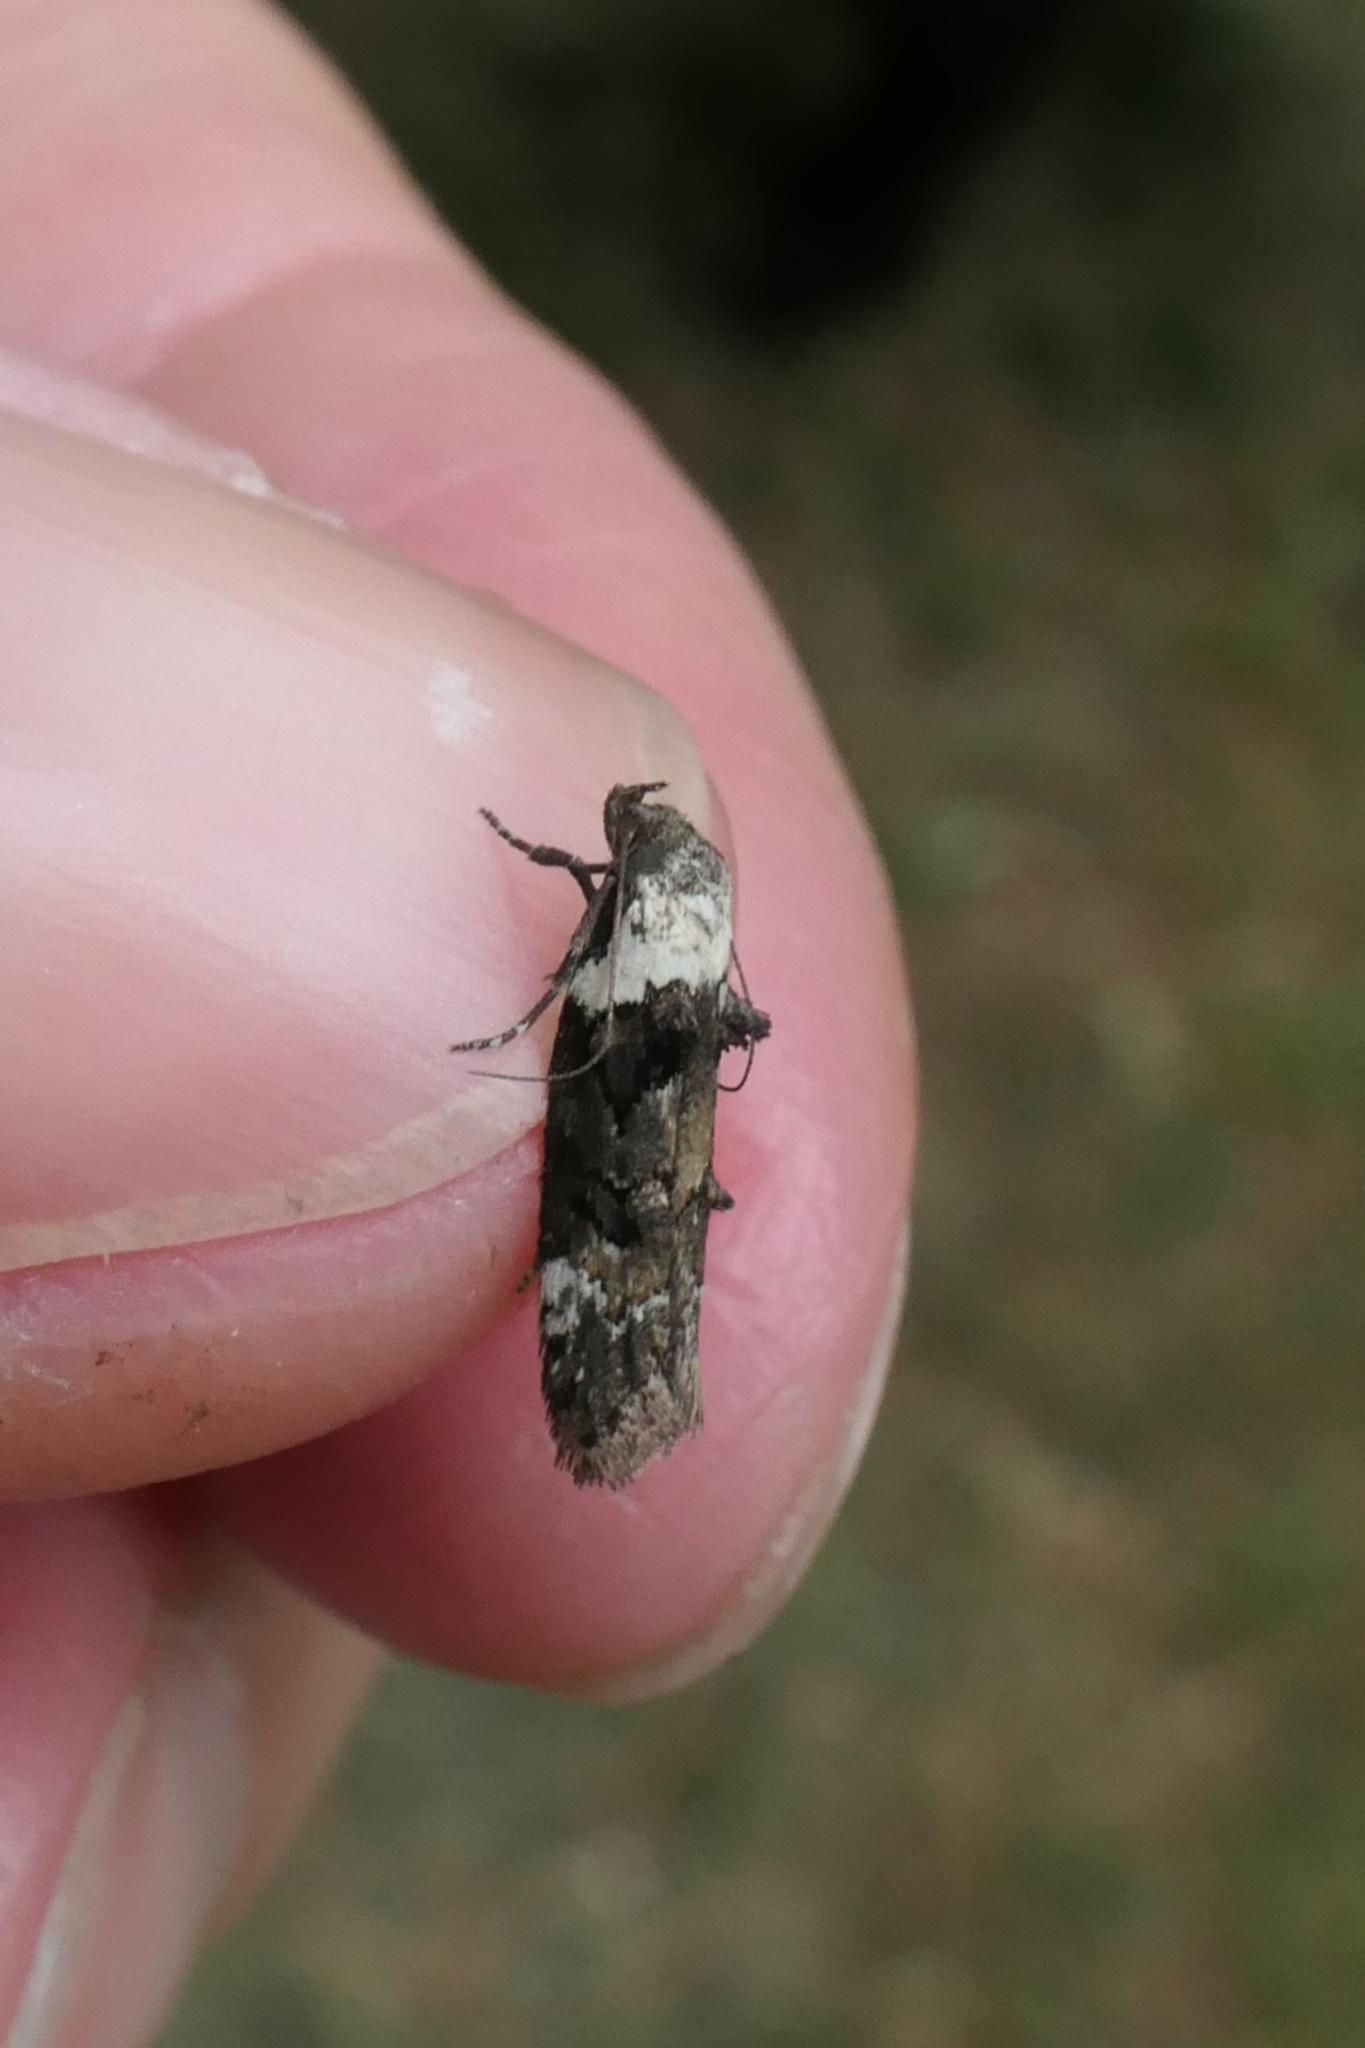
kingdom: Animalia
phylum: Arthropoda
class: Insecta
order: Lepidoptera
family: Oecophoridae
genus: Trachypepla
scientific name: Trachypepla conspicuella
